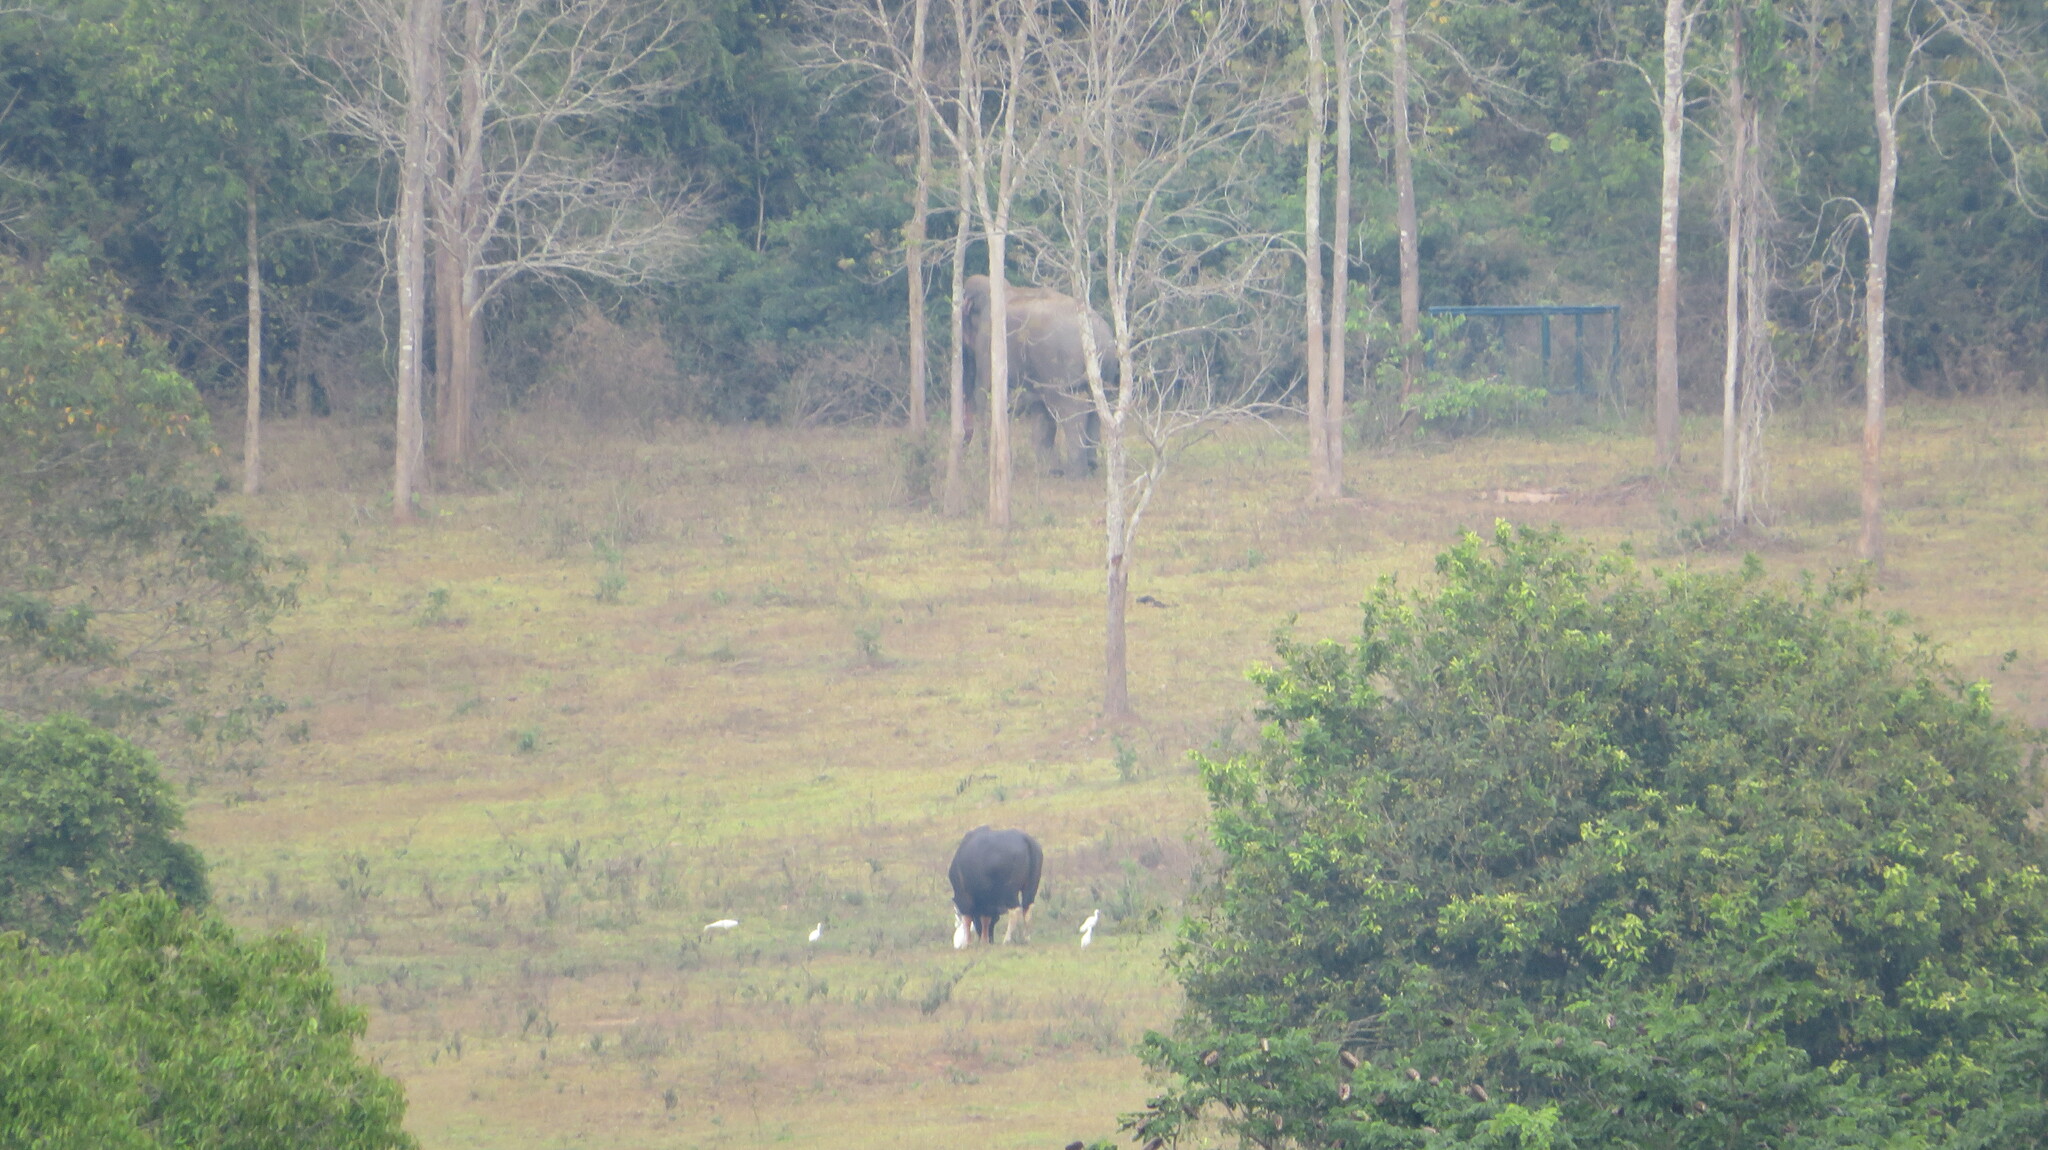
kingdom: Animalia
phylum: Chordata
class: Mammalia
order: Artiodactyla
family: Bovidae
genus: Bos
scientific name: Bos frontalis
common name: Gaur
